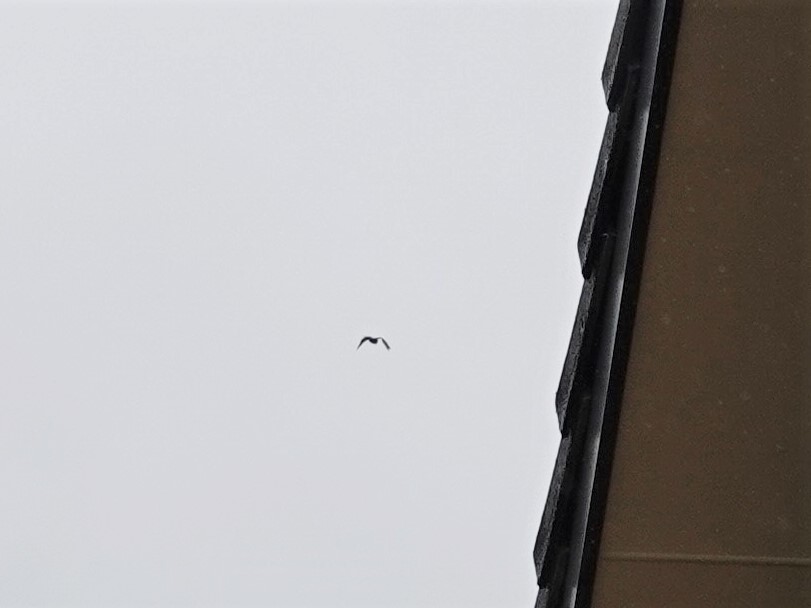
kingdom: Animalia
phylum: Chordata
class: Aves
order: Psittaciformes
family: Psittacidae
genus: Nestor
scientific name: Nestor meridionalis
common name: New zealand kaka
